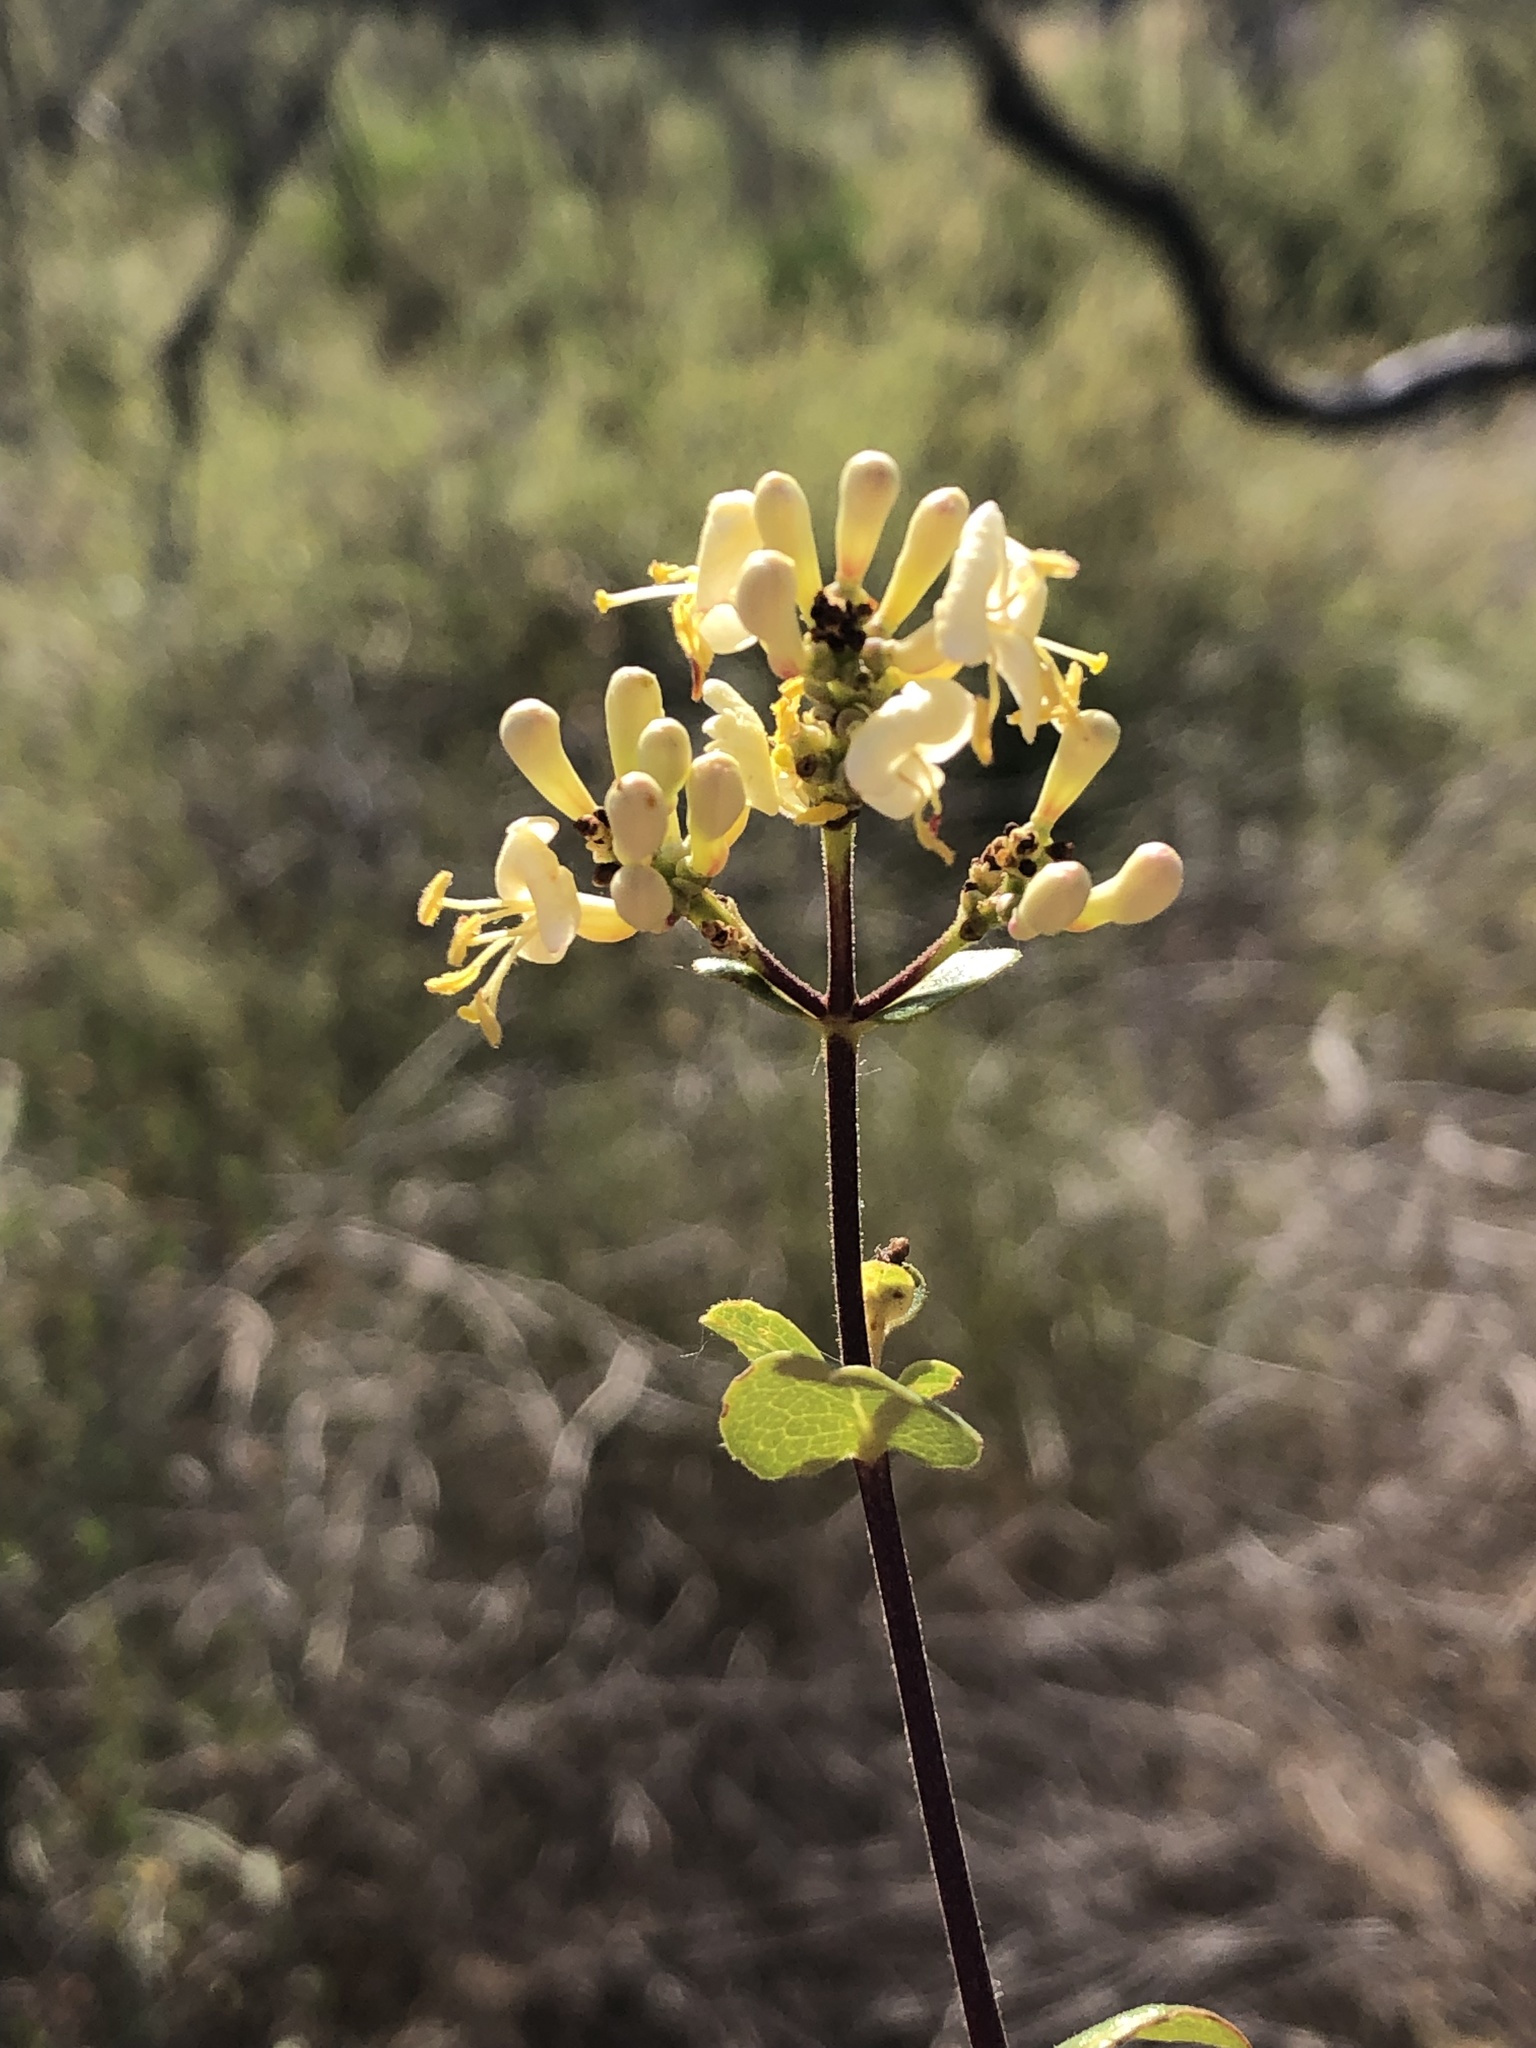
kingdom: Plantae
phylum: Tracheophyta
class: Magnoliopsida
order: Dipsacales
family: Caprifoliaceae
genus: Lonicera
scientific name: Lonicera subspicata
